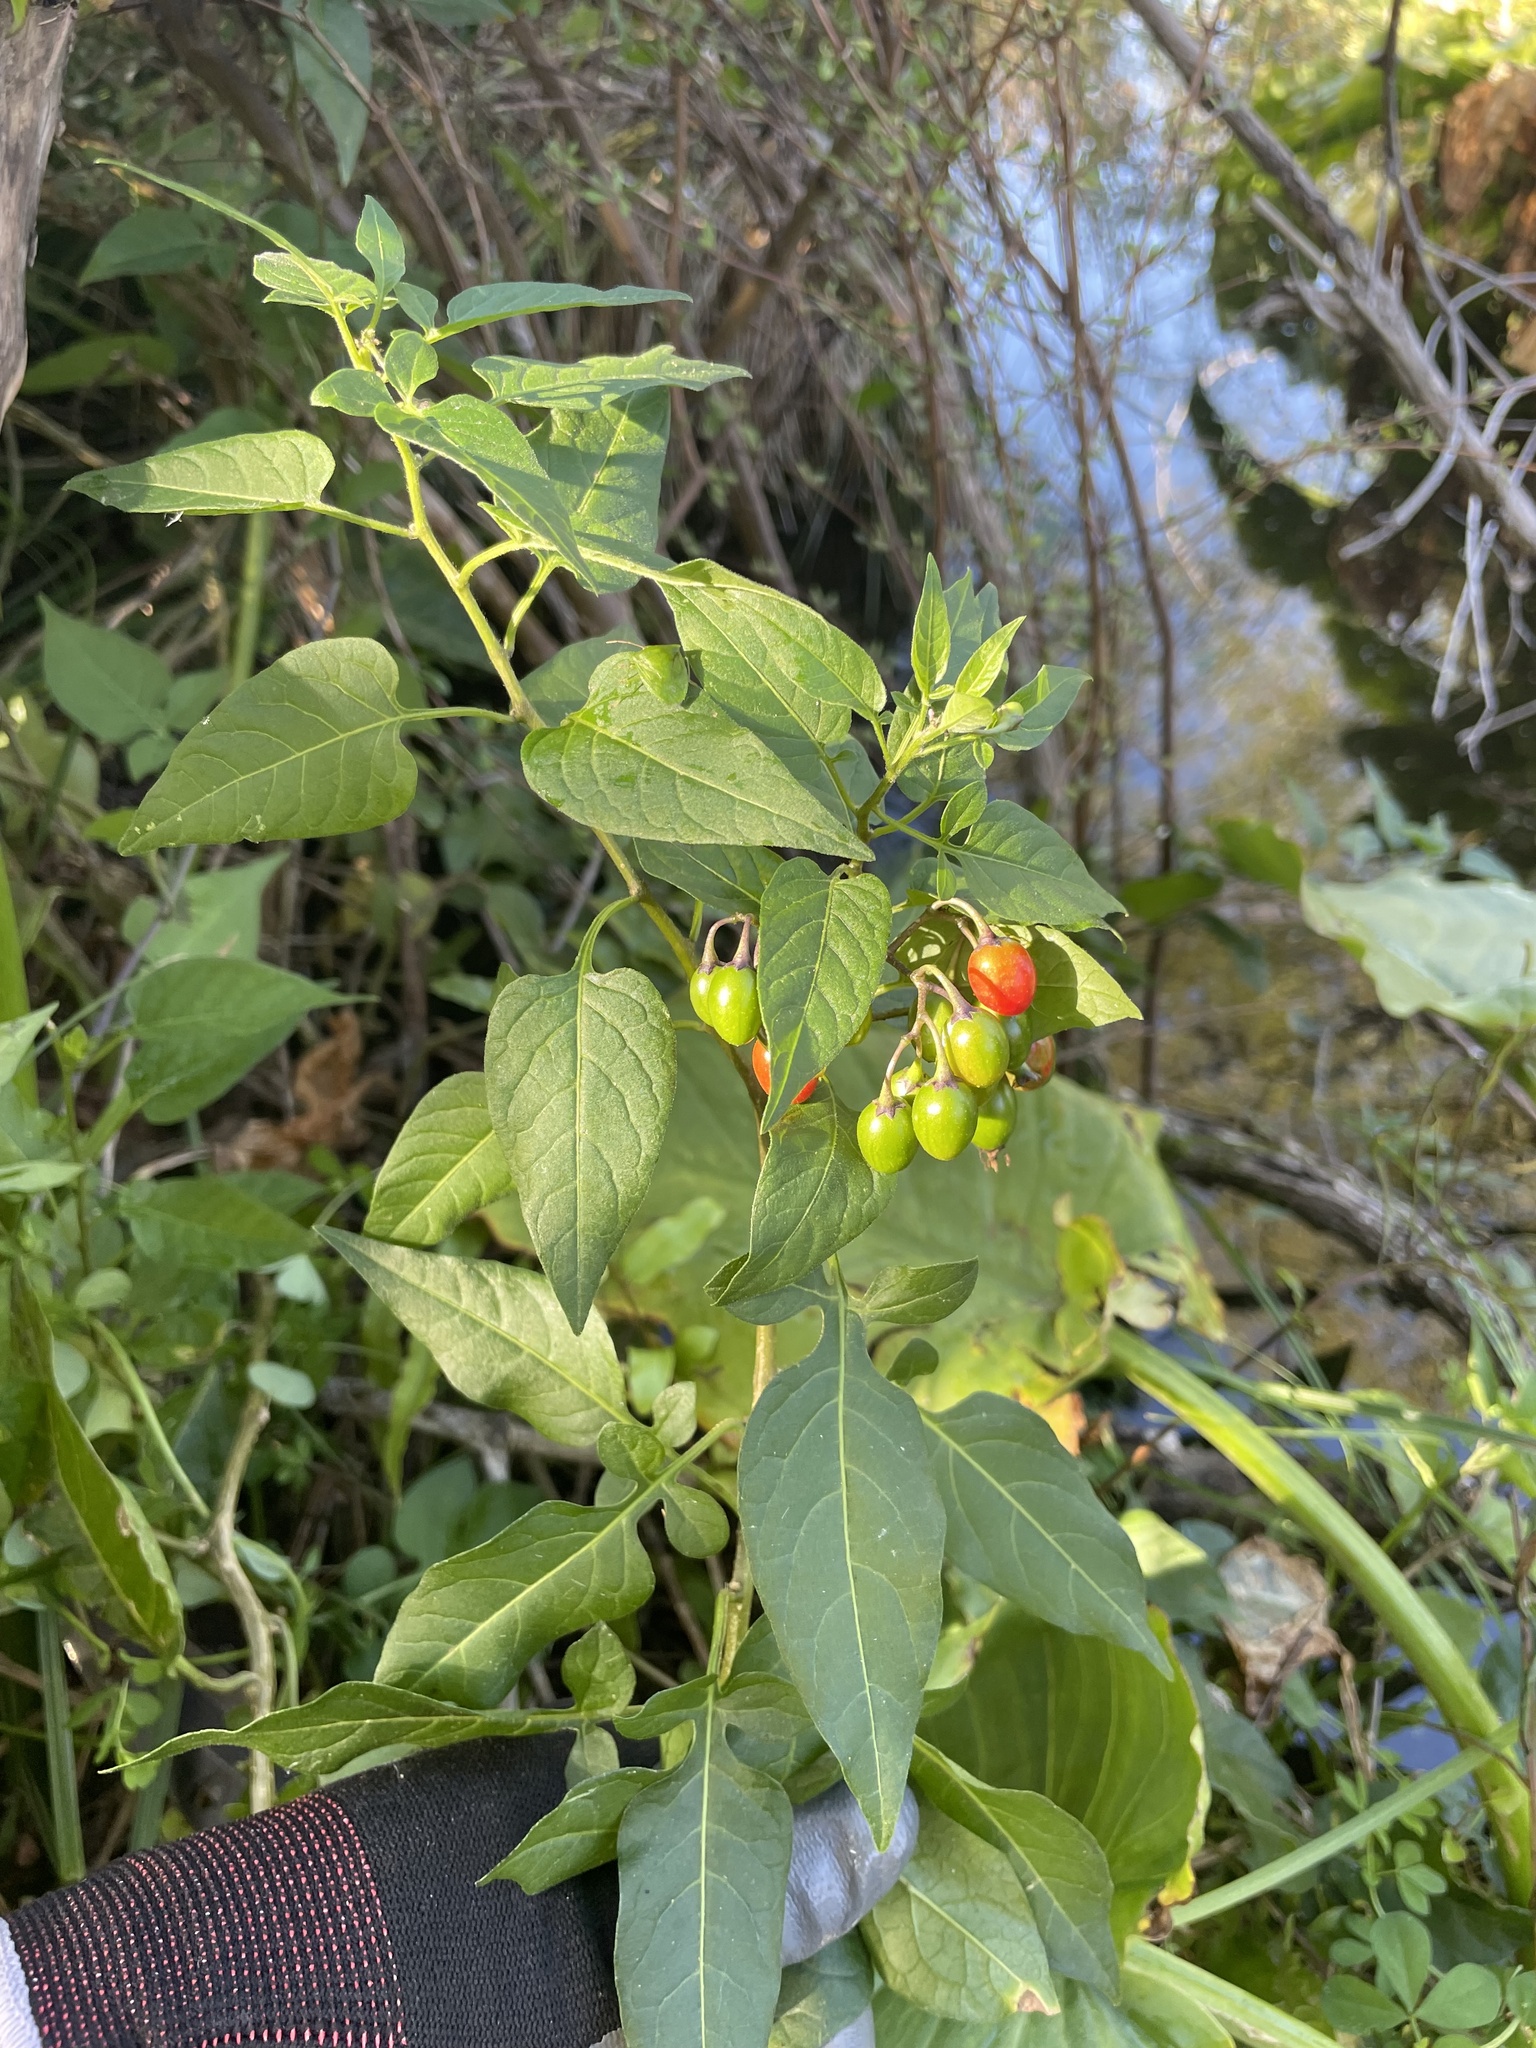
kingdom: Plantae
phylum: Tracheophyta
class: Magnoliopsida
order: Solanales
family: Solanaceae
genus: Solanum
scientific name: Solanum dulcamara
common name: Climbing nightshade
